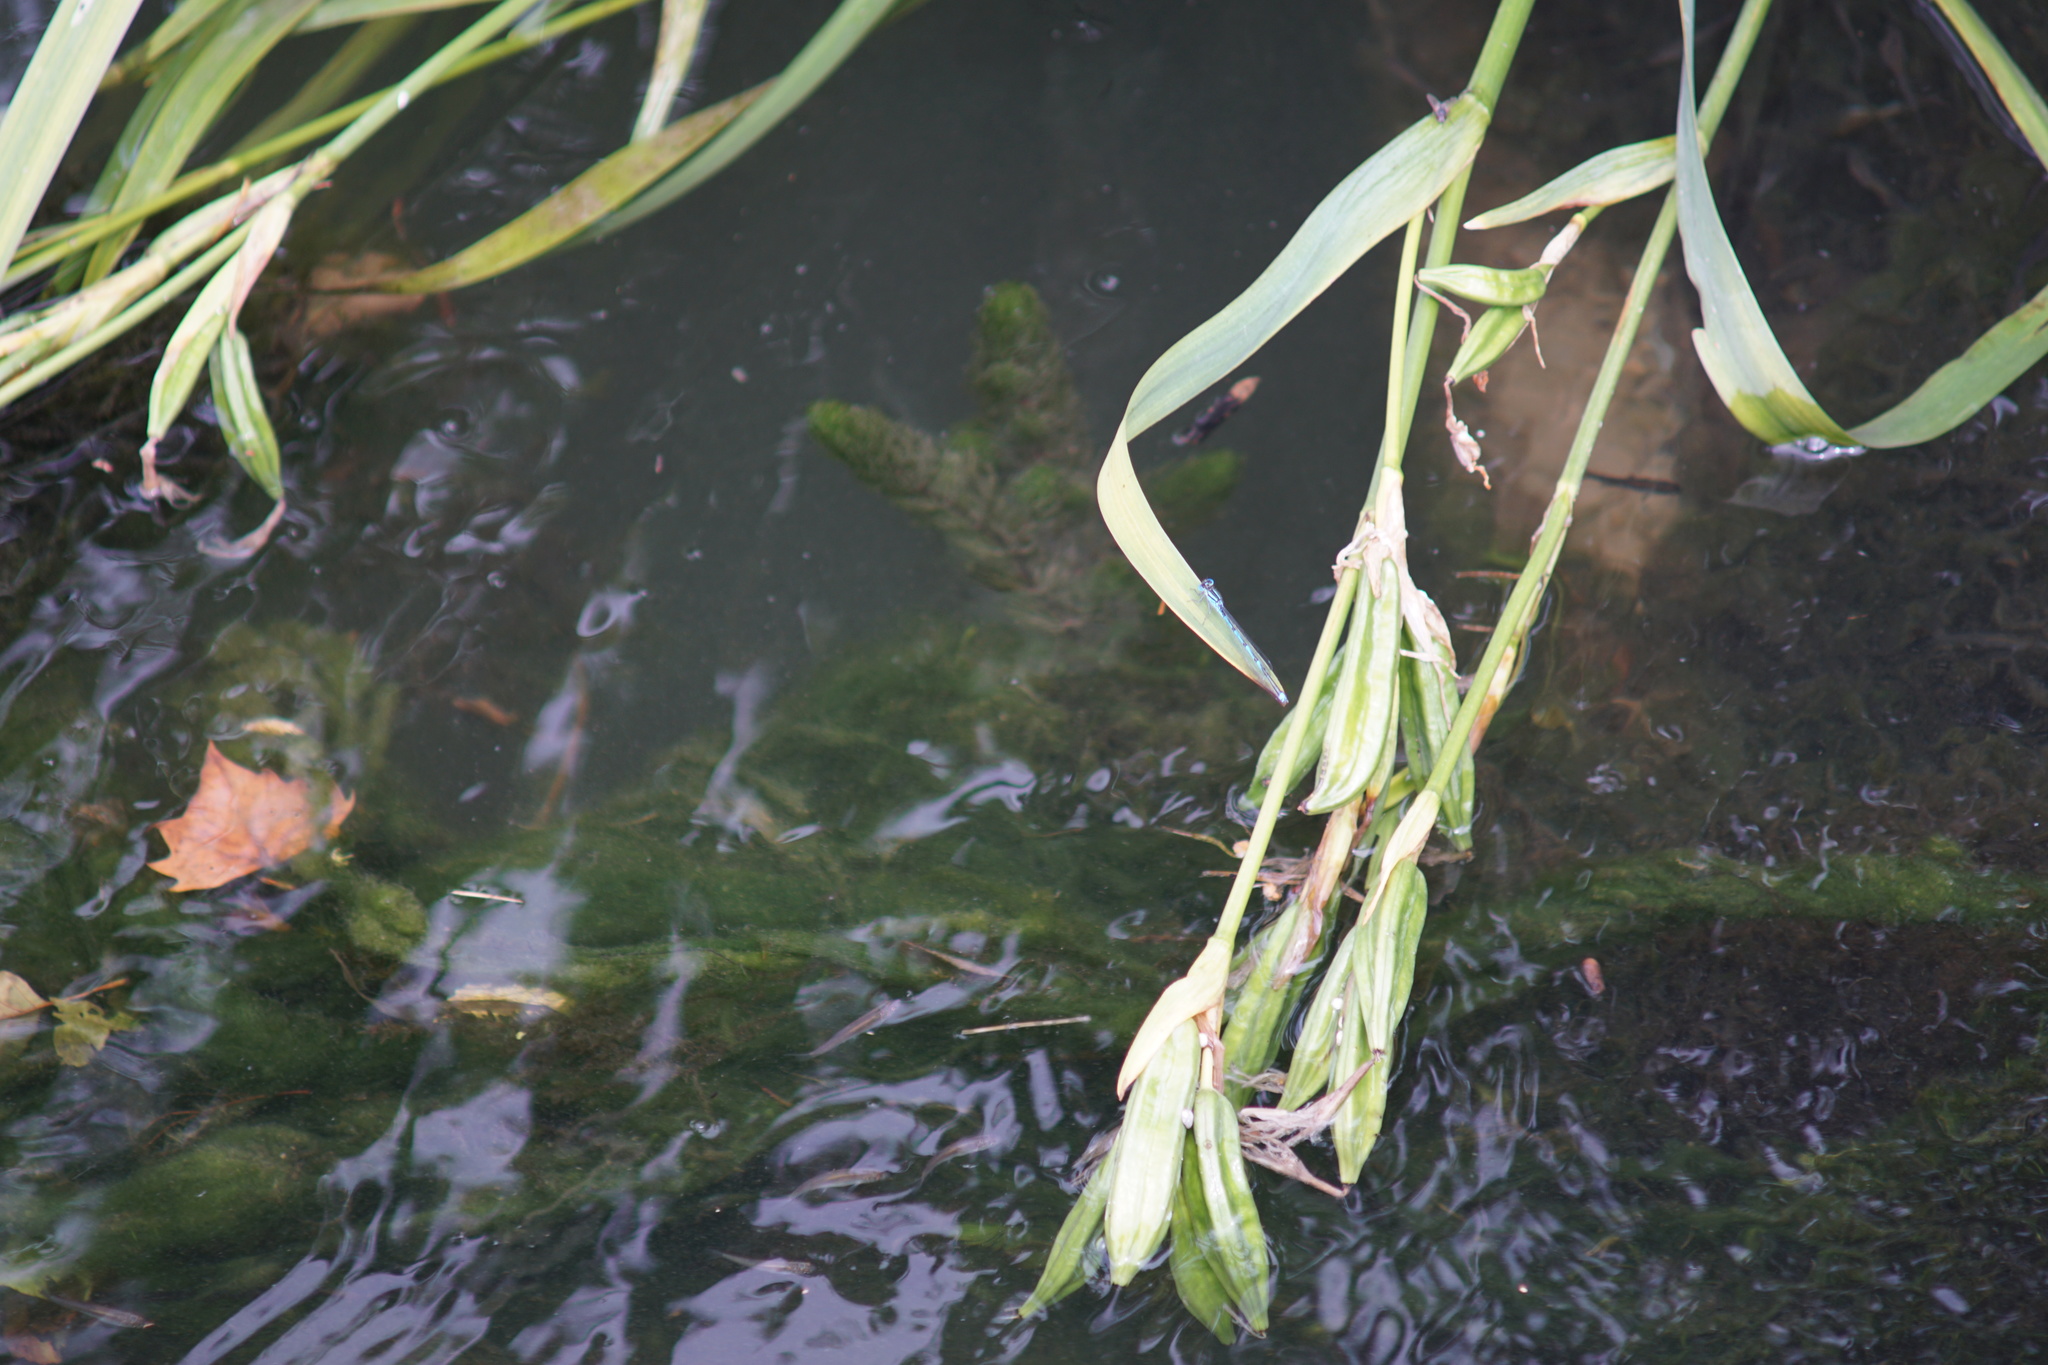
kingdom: Animalia
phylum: Arthropoda
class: Insecta
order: Odonata
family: Coenagrionidae
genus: Erythromma
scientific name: Erythromma lindenii
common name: Blue-eye
